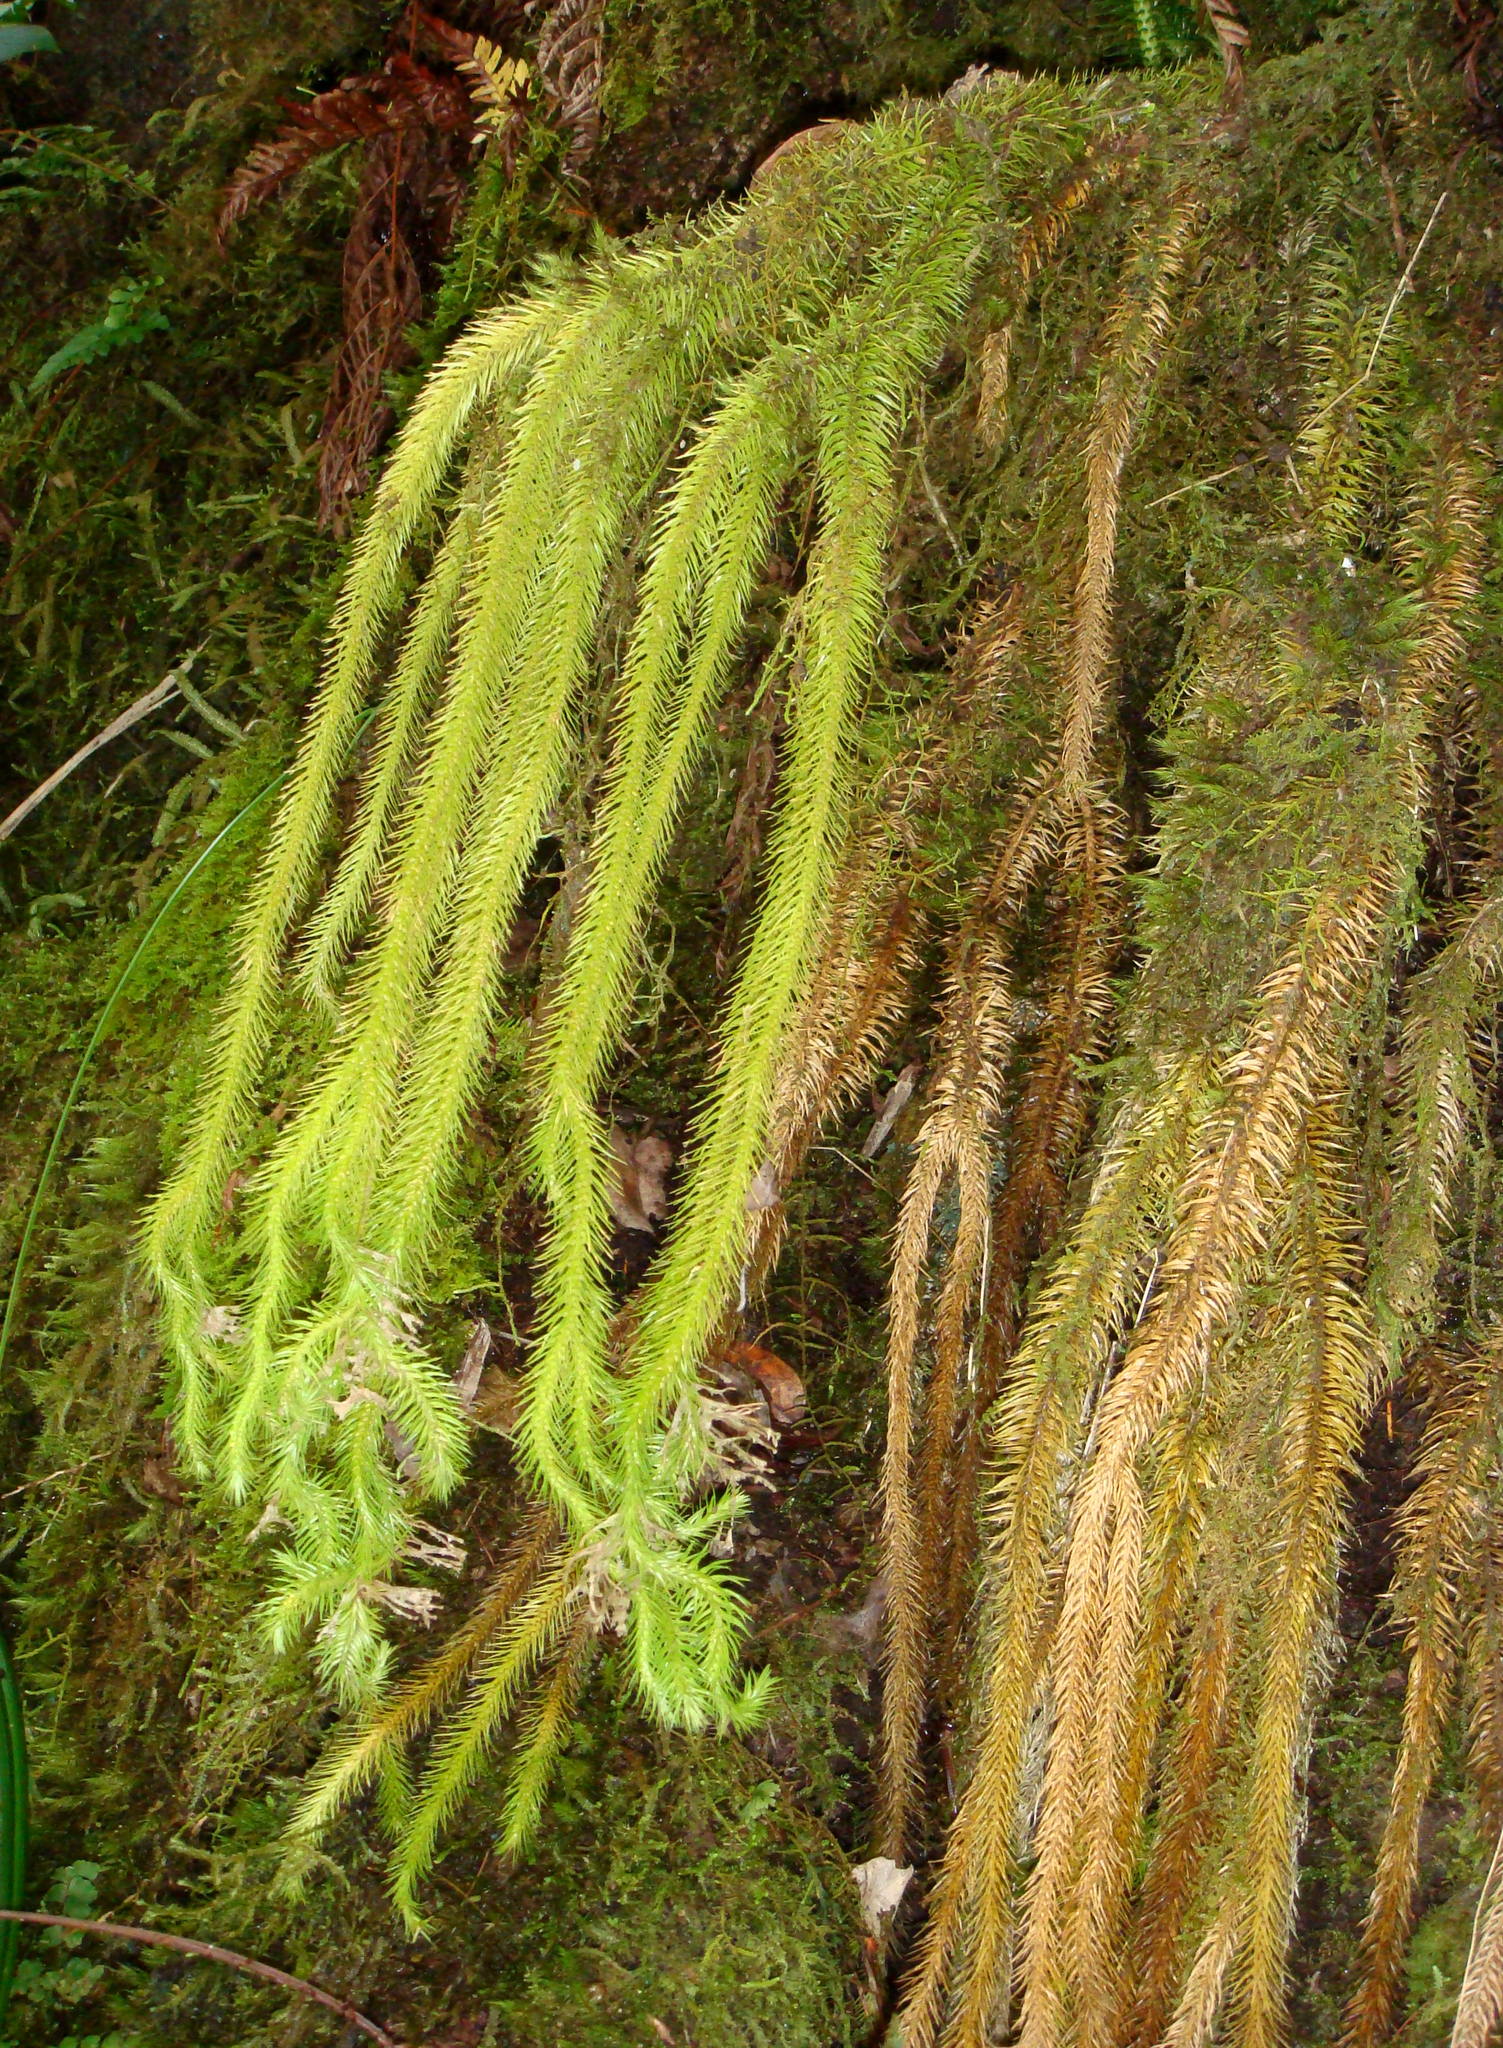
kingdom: Plantae
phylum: Tracheophyta
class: Lycopodiopsida
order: Lycopodiales
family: Lycopodiaceae
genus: Phlegmariurus
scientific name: Phlegmariurus squarrosus
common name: Rock tassel-fern
